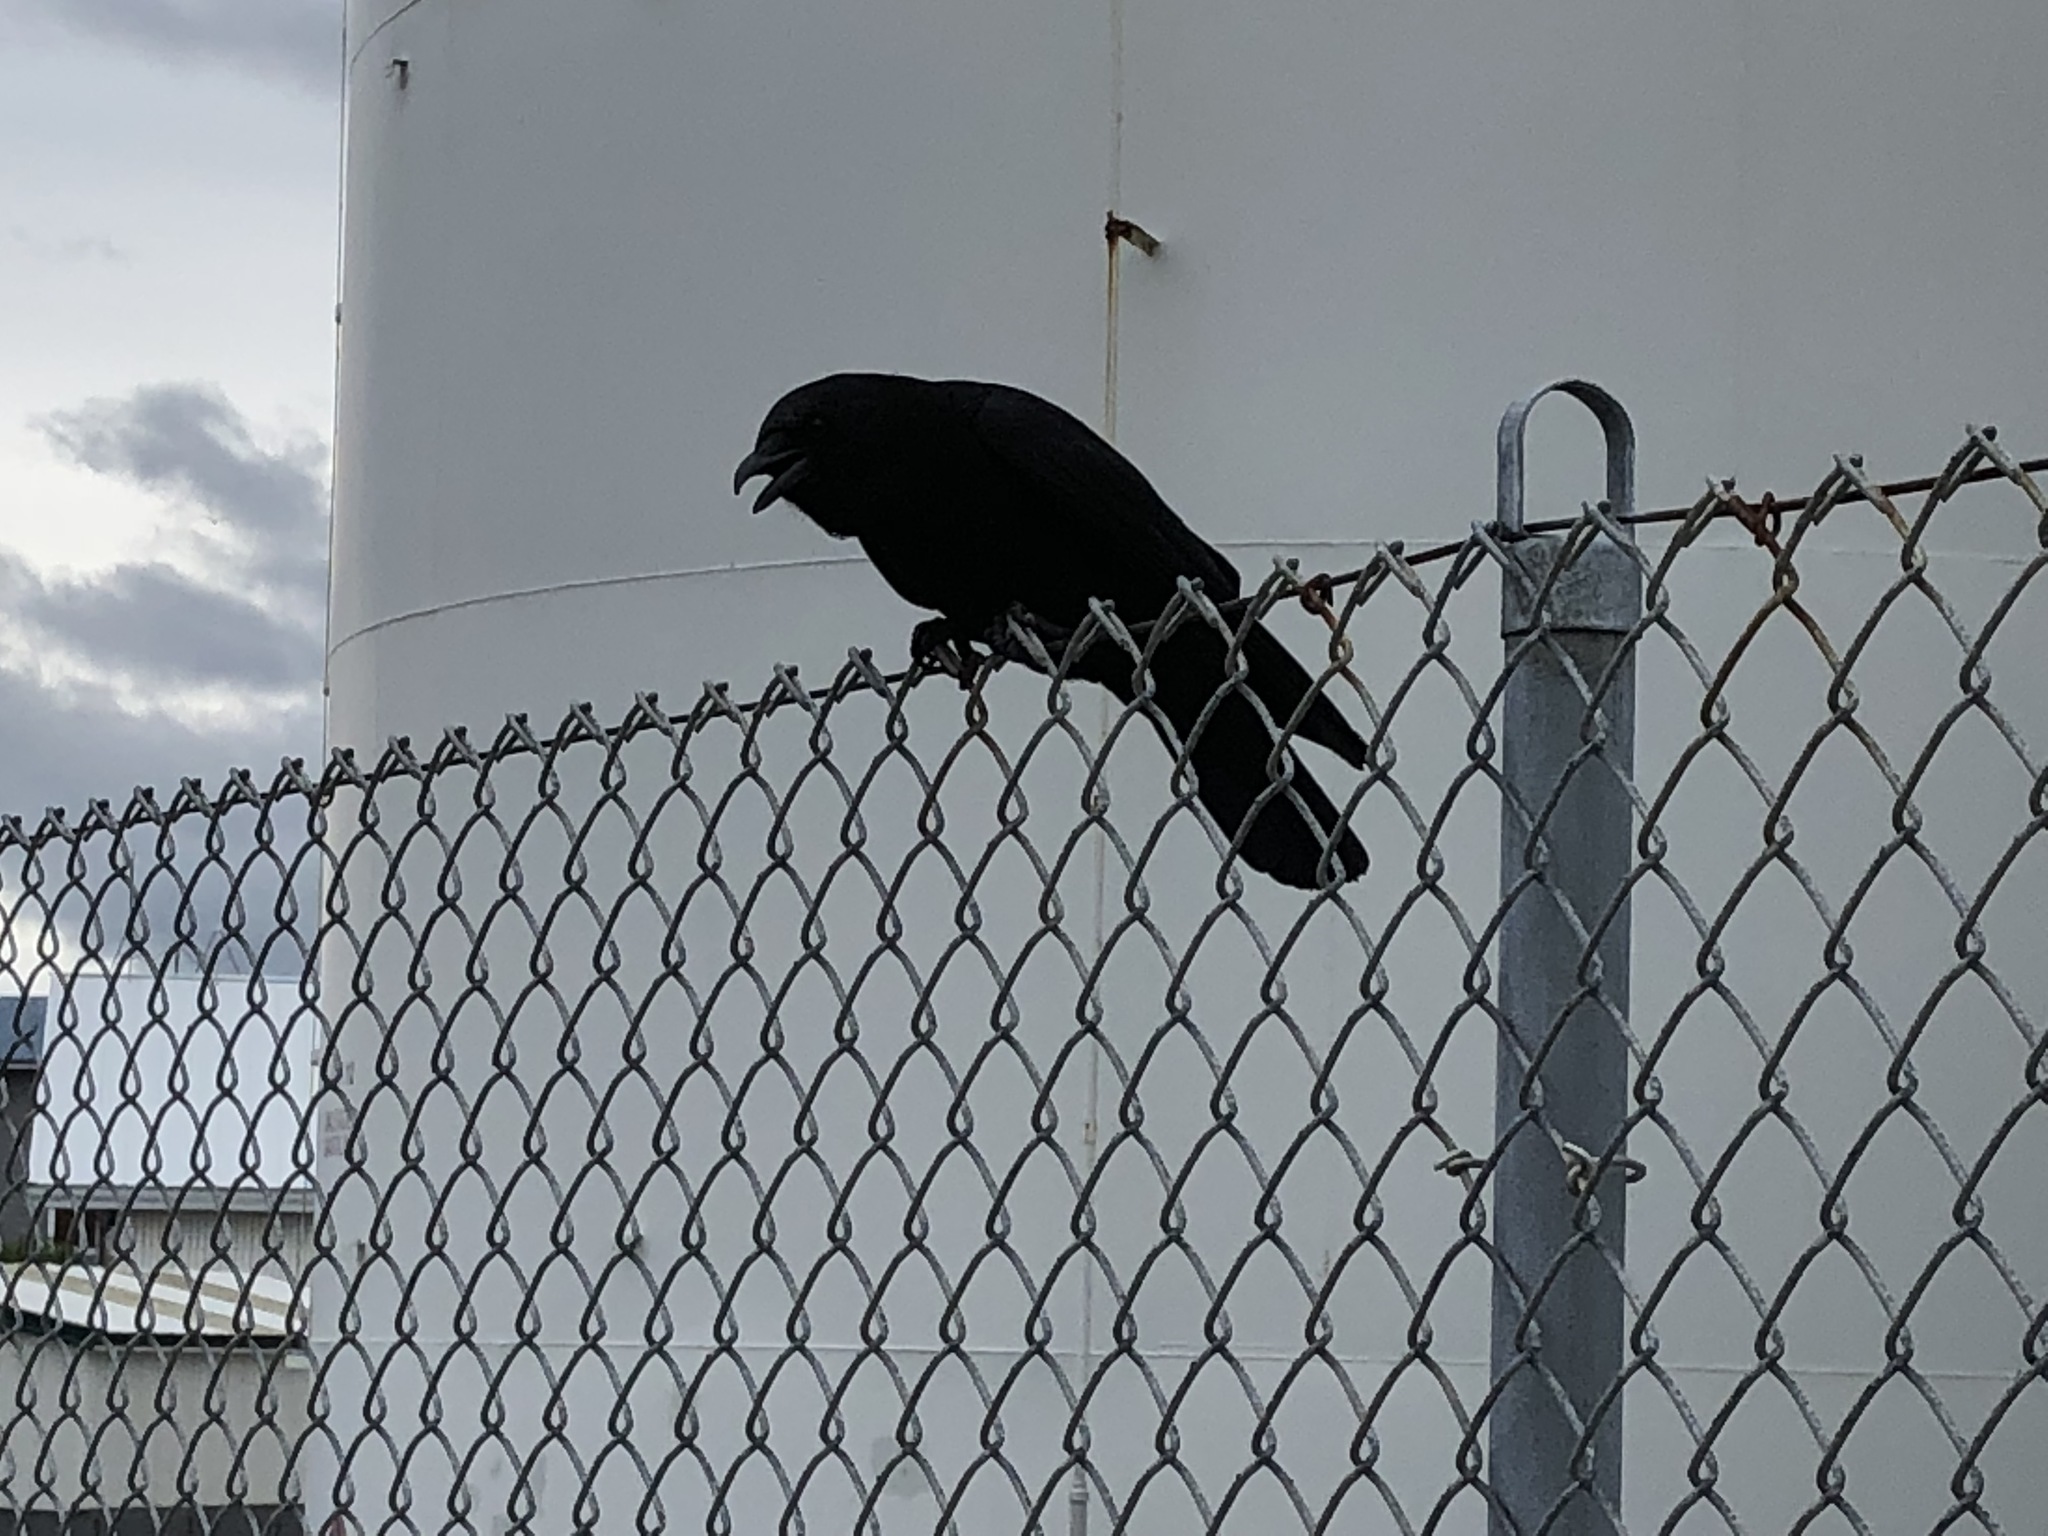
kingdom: Animalia
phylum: Chordata
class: Aves
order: Passeriformes
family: Corvidae
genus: Corvus
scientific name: Corvus brachyrhynchos
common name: American crow
